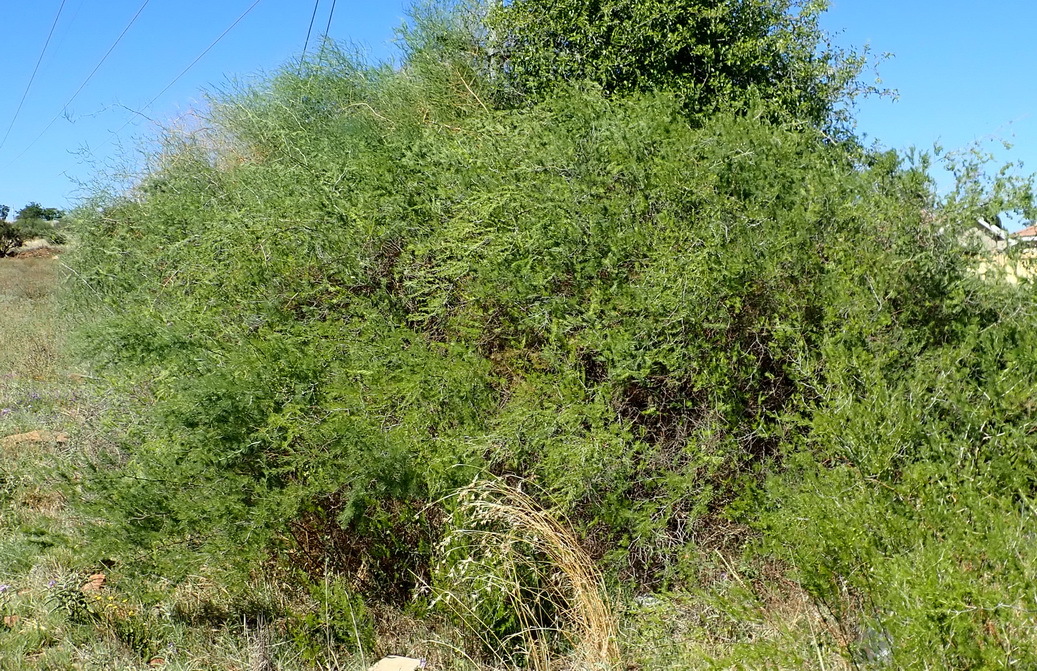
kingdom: Plantae
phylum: Tracheophyta
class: Liliopsida
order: Asparagales
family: Asparagaceae
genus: Asparagus
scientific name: Asparagus laricinus
